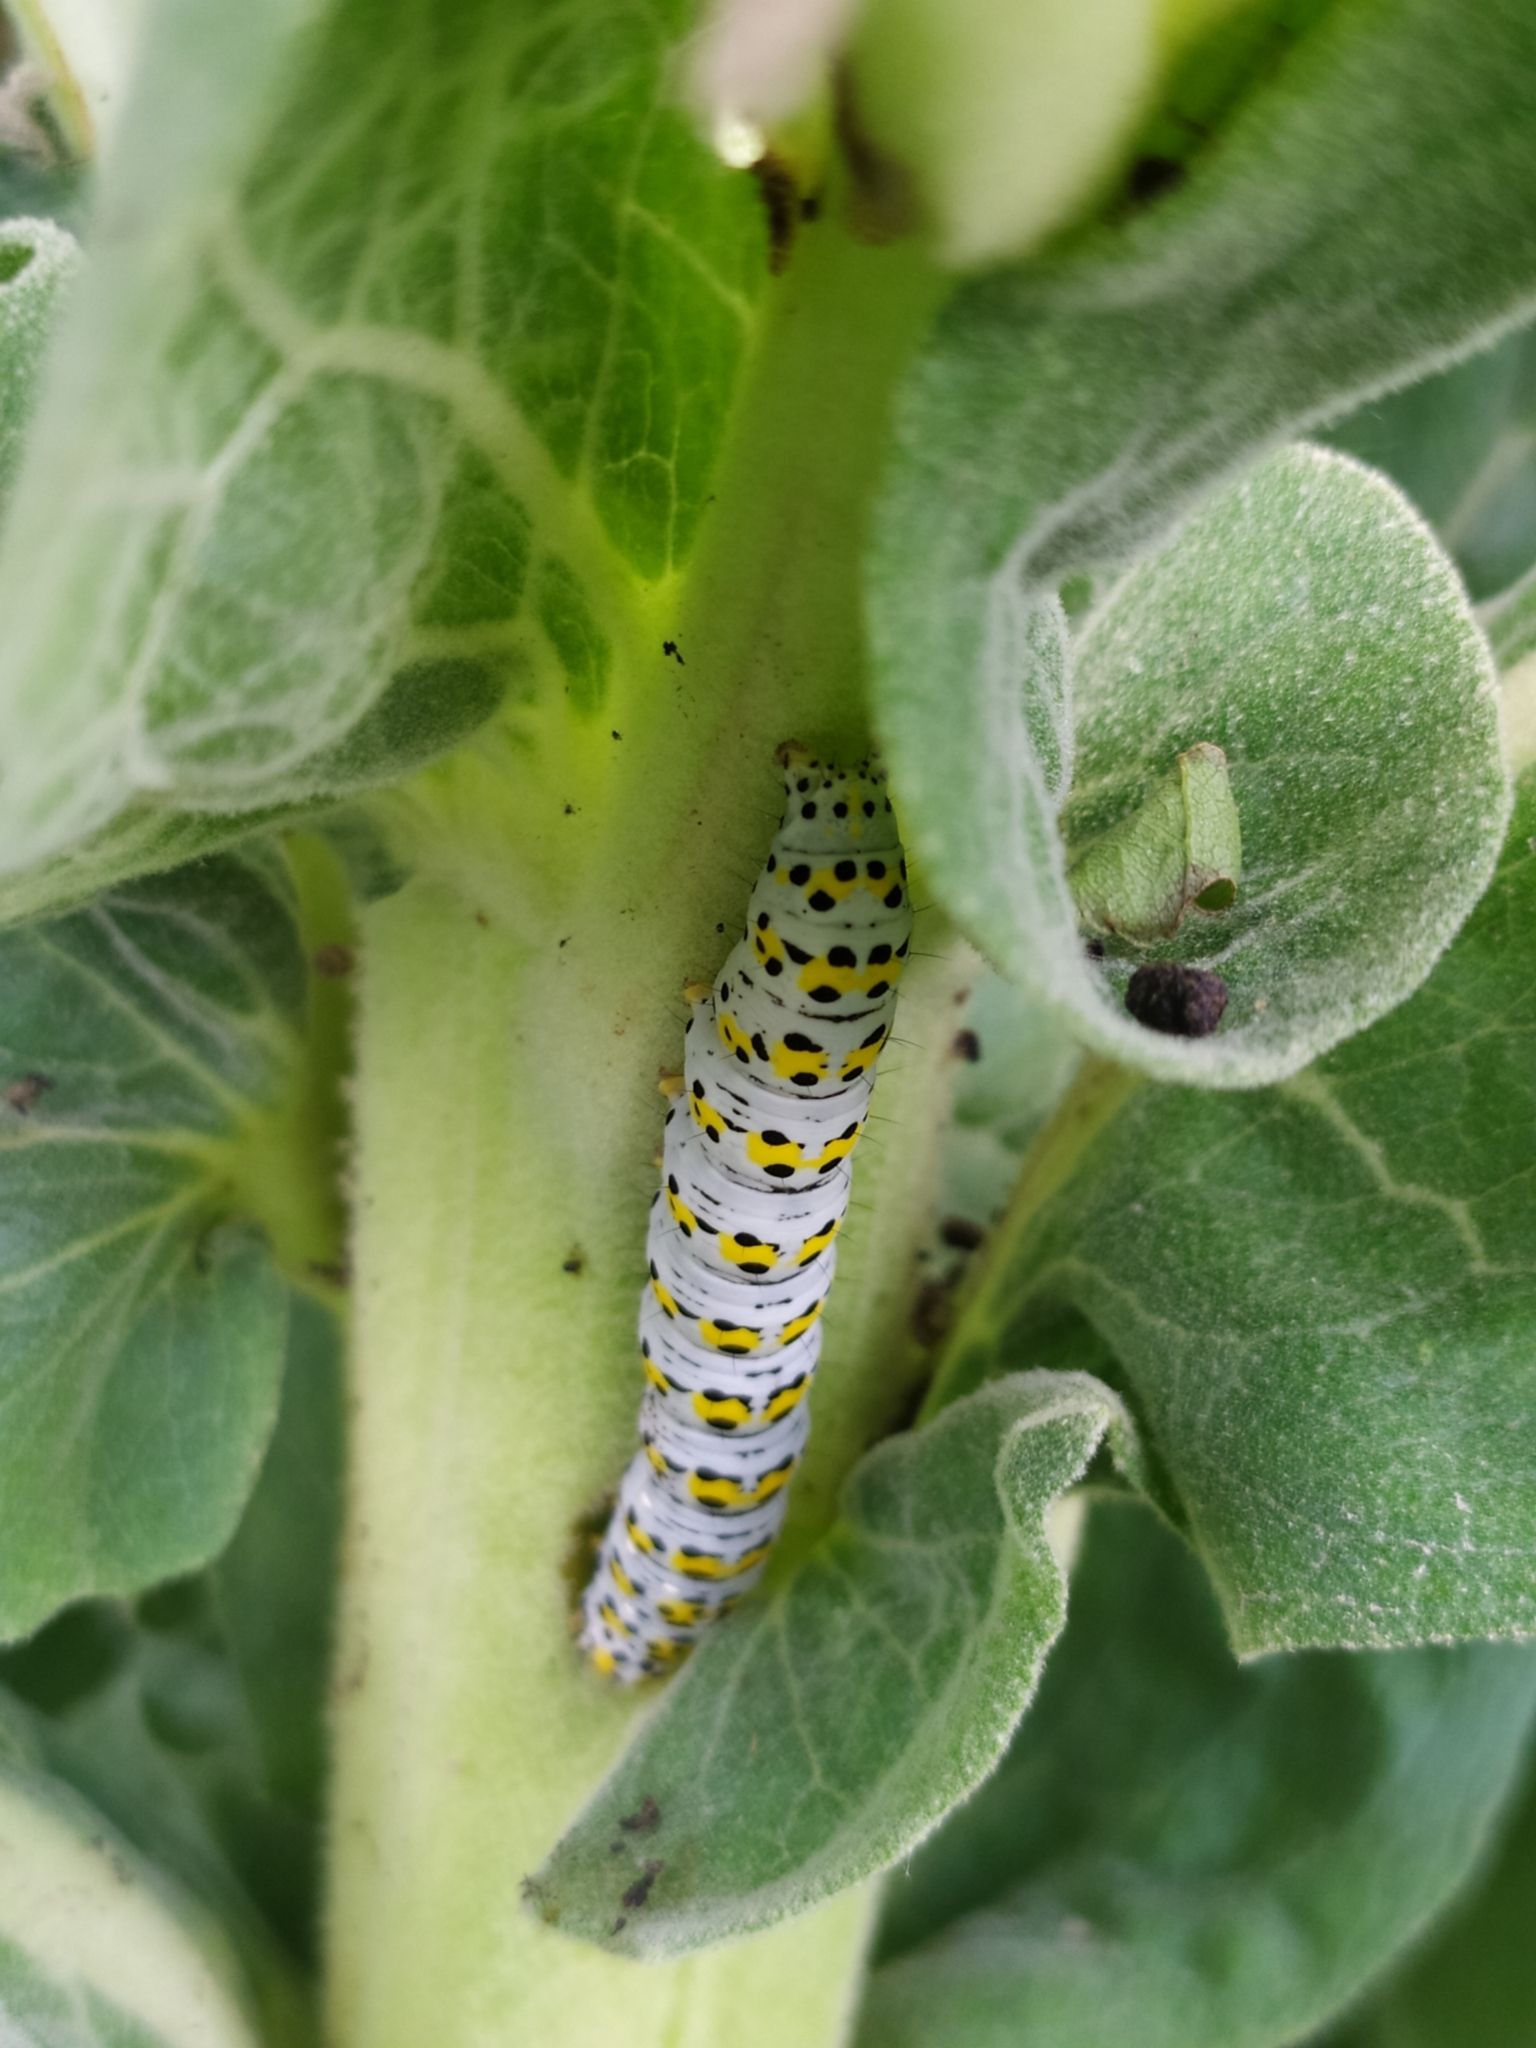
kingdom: Animalia
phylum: Arthropoda
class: Insecta
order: Lepidoptera
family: Noctuidae
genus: Cucullia
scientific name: Cucullia verbasci
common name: Mullein
